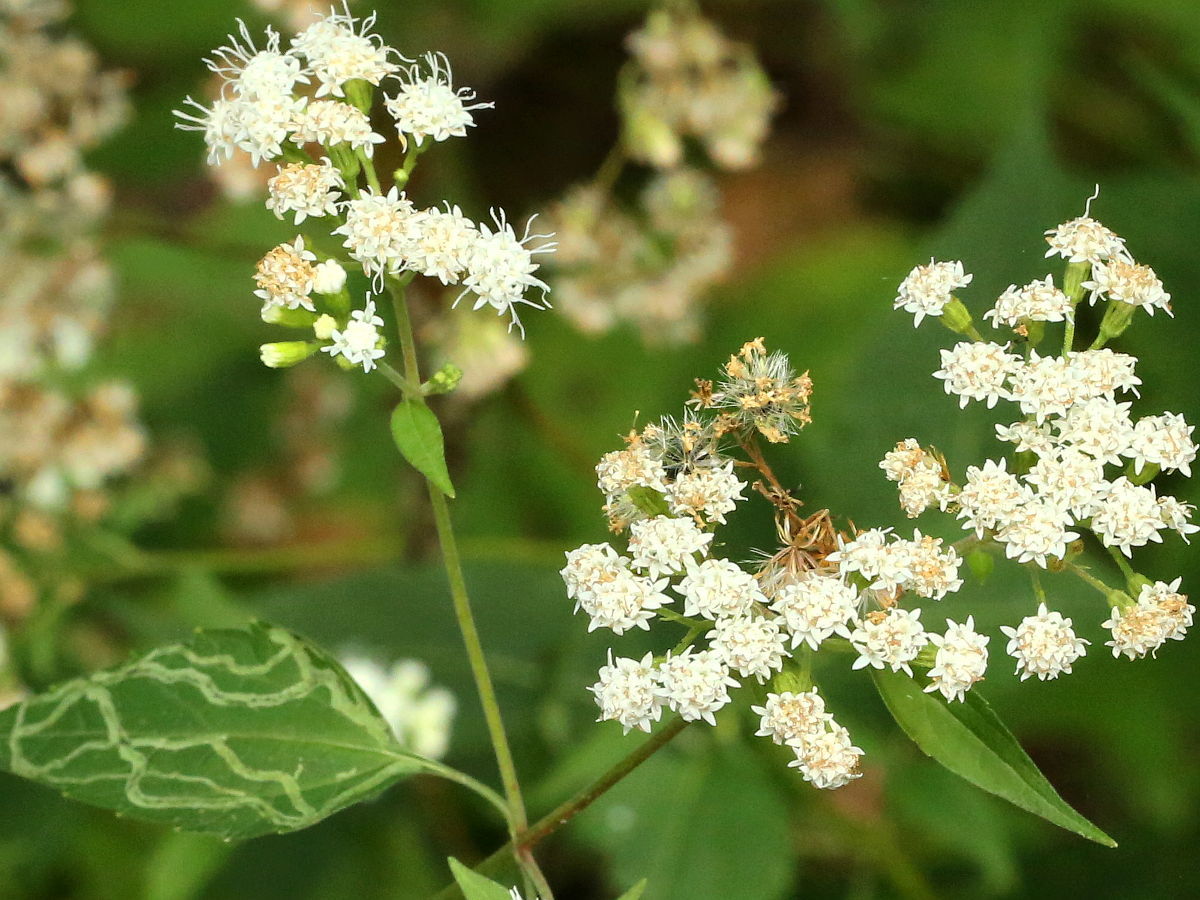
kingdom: Plantae
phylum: Tracheophyta
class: Magnoliopsida
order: Asterales
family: Asteraceae
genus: Ageratina
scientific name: Ageratina altissima
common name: White snakeroot
